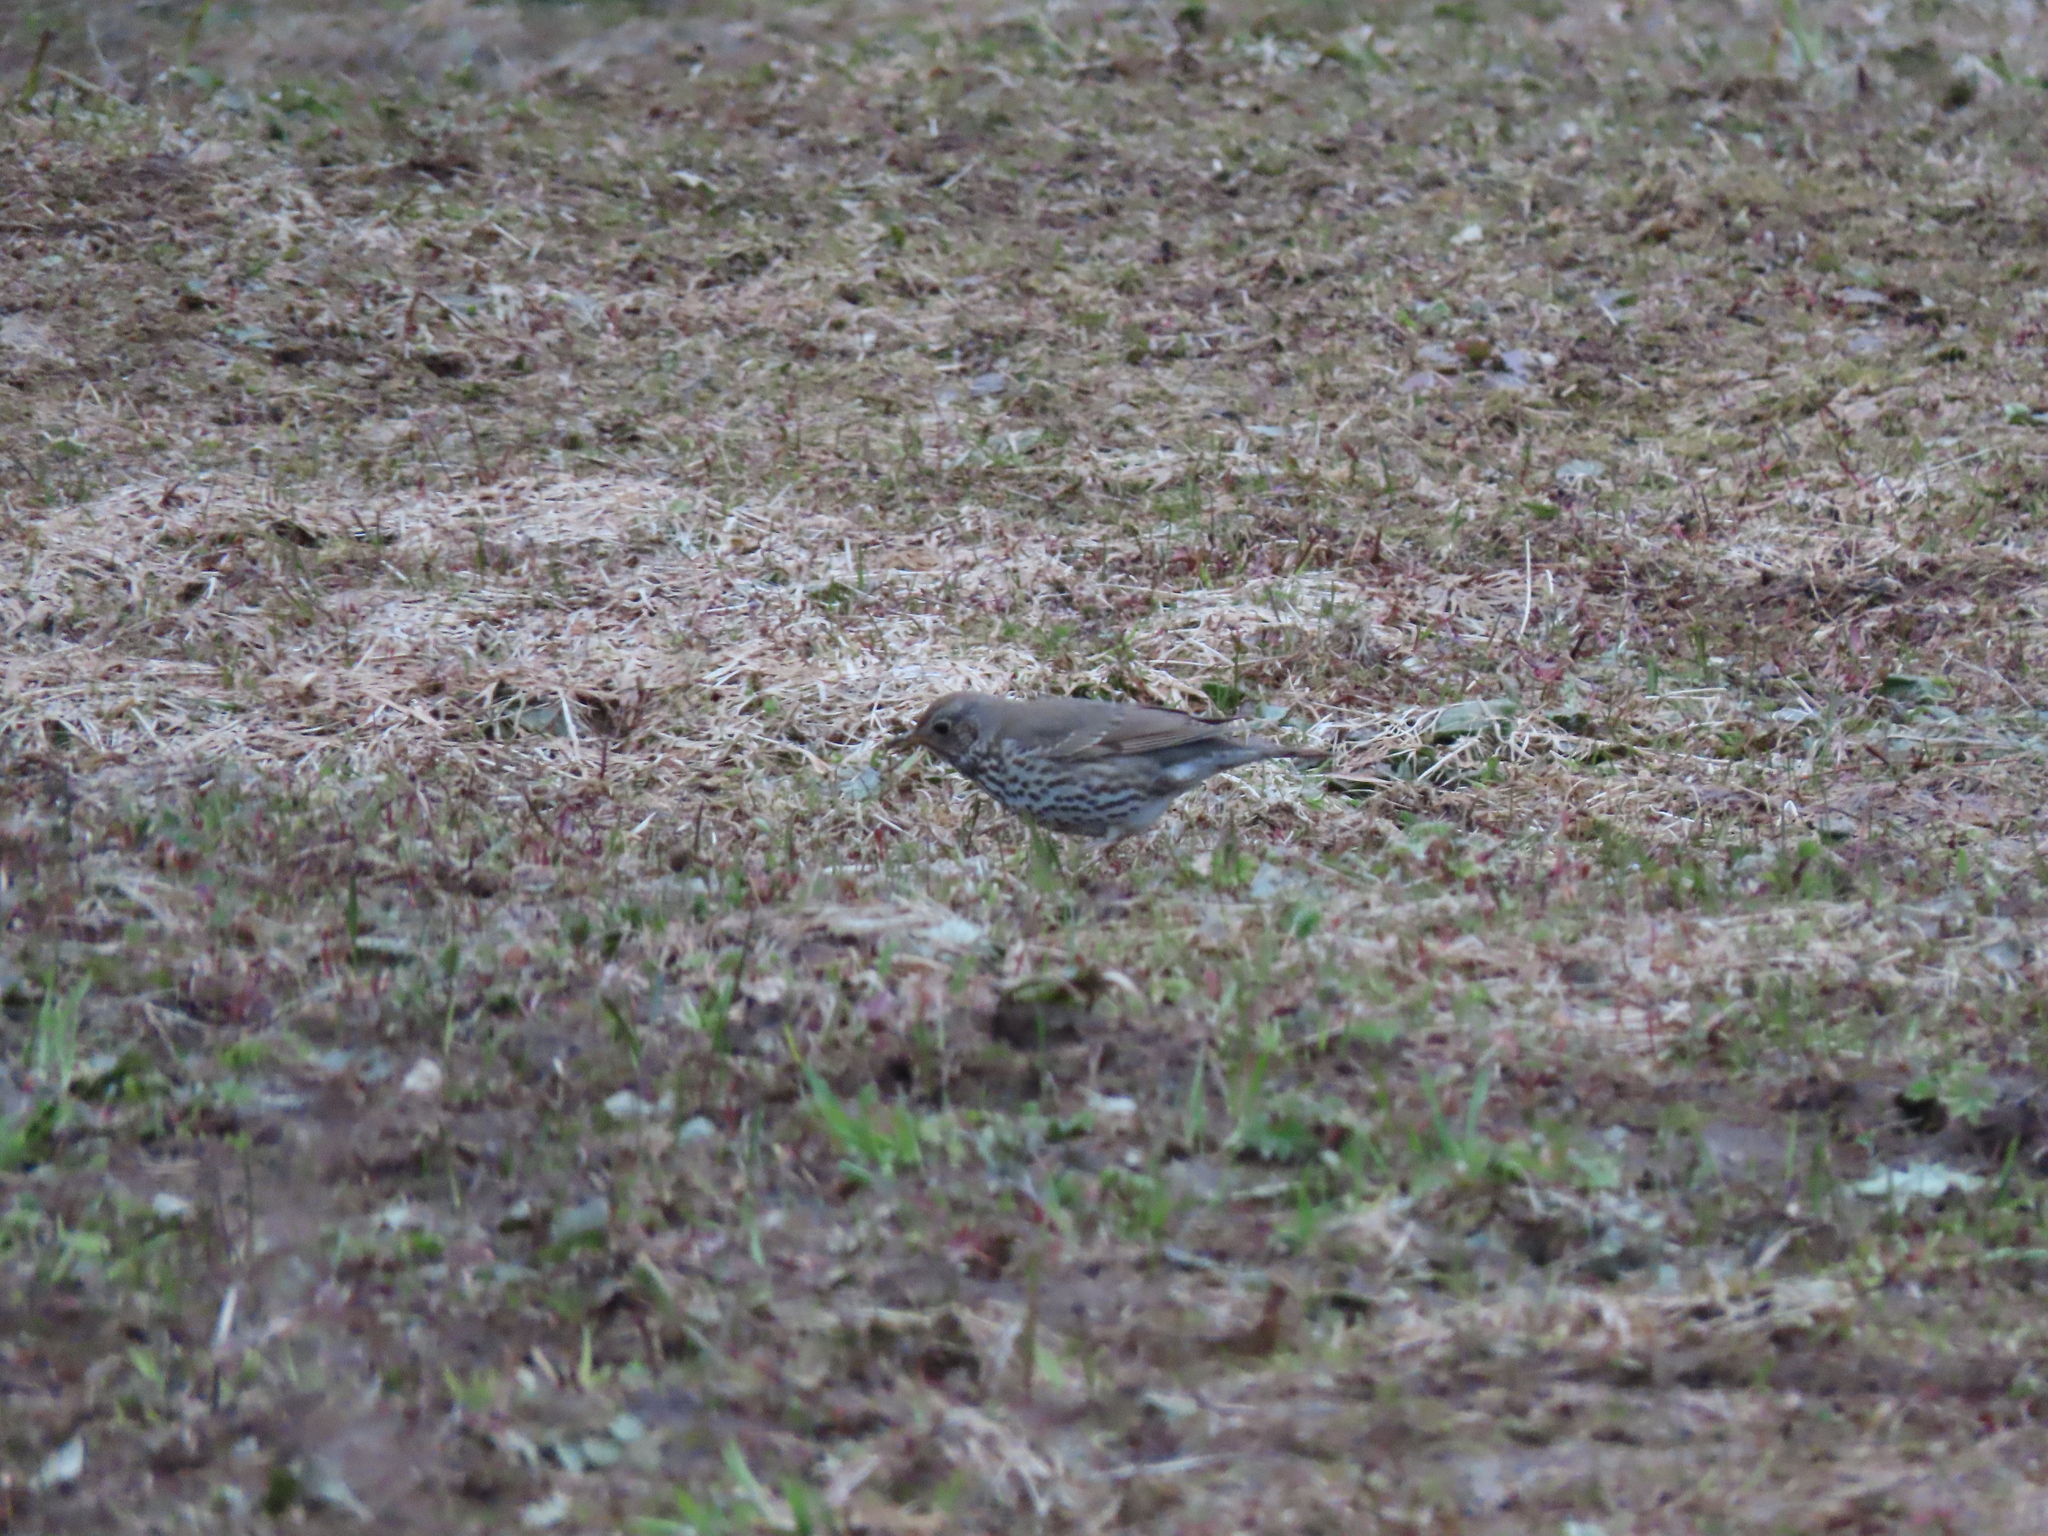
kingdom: Animalia
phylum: Chordata
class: Aves
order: Passeriformes
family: Turdidae
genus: Turdus
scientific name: Turdus philomelos
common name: Song thrush
